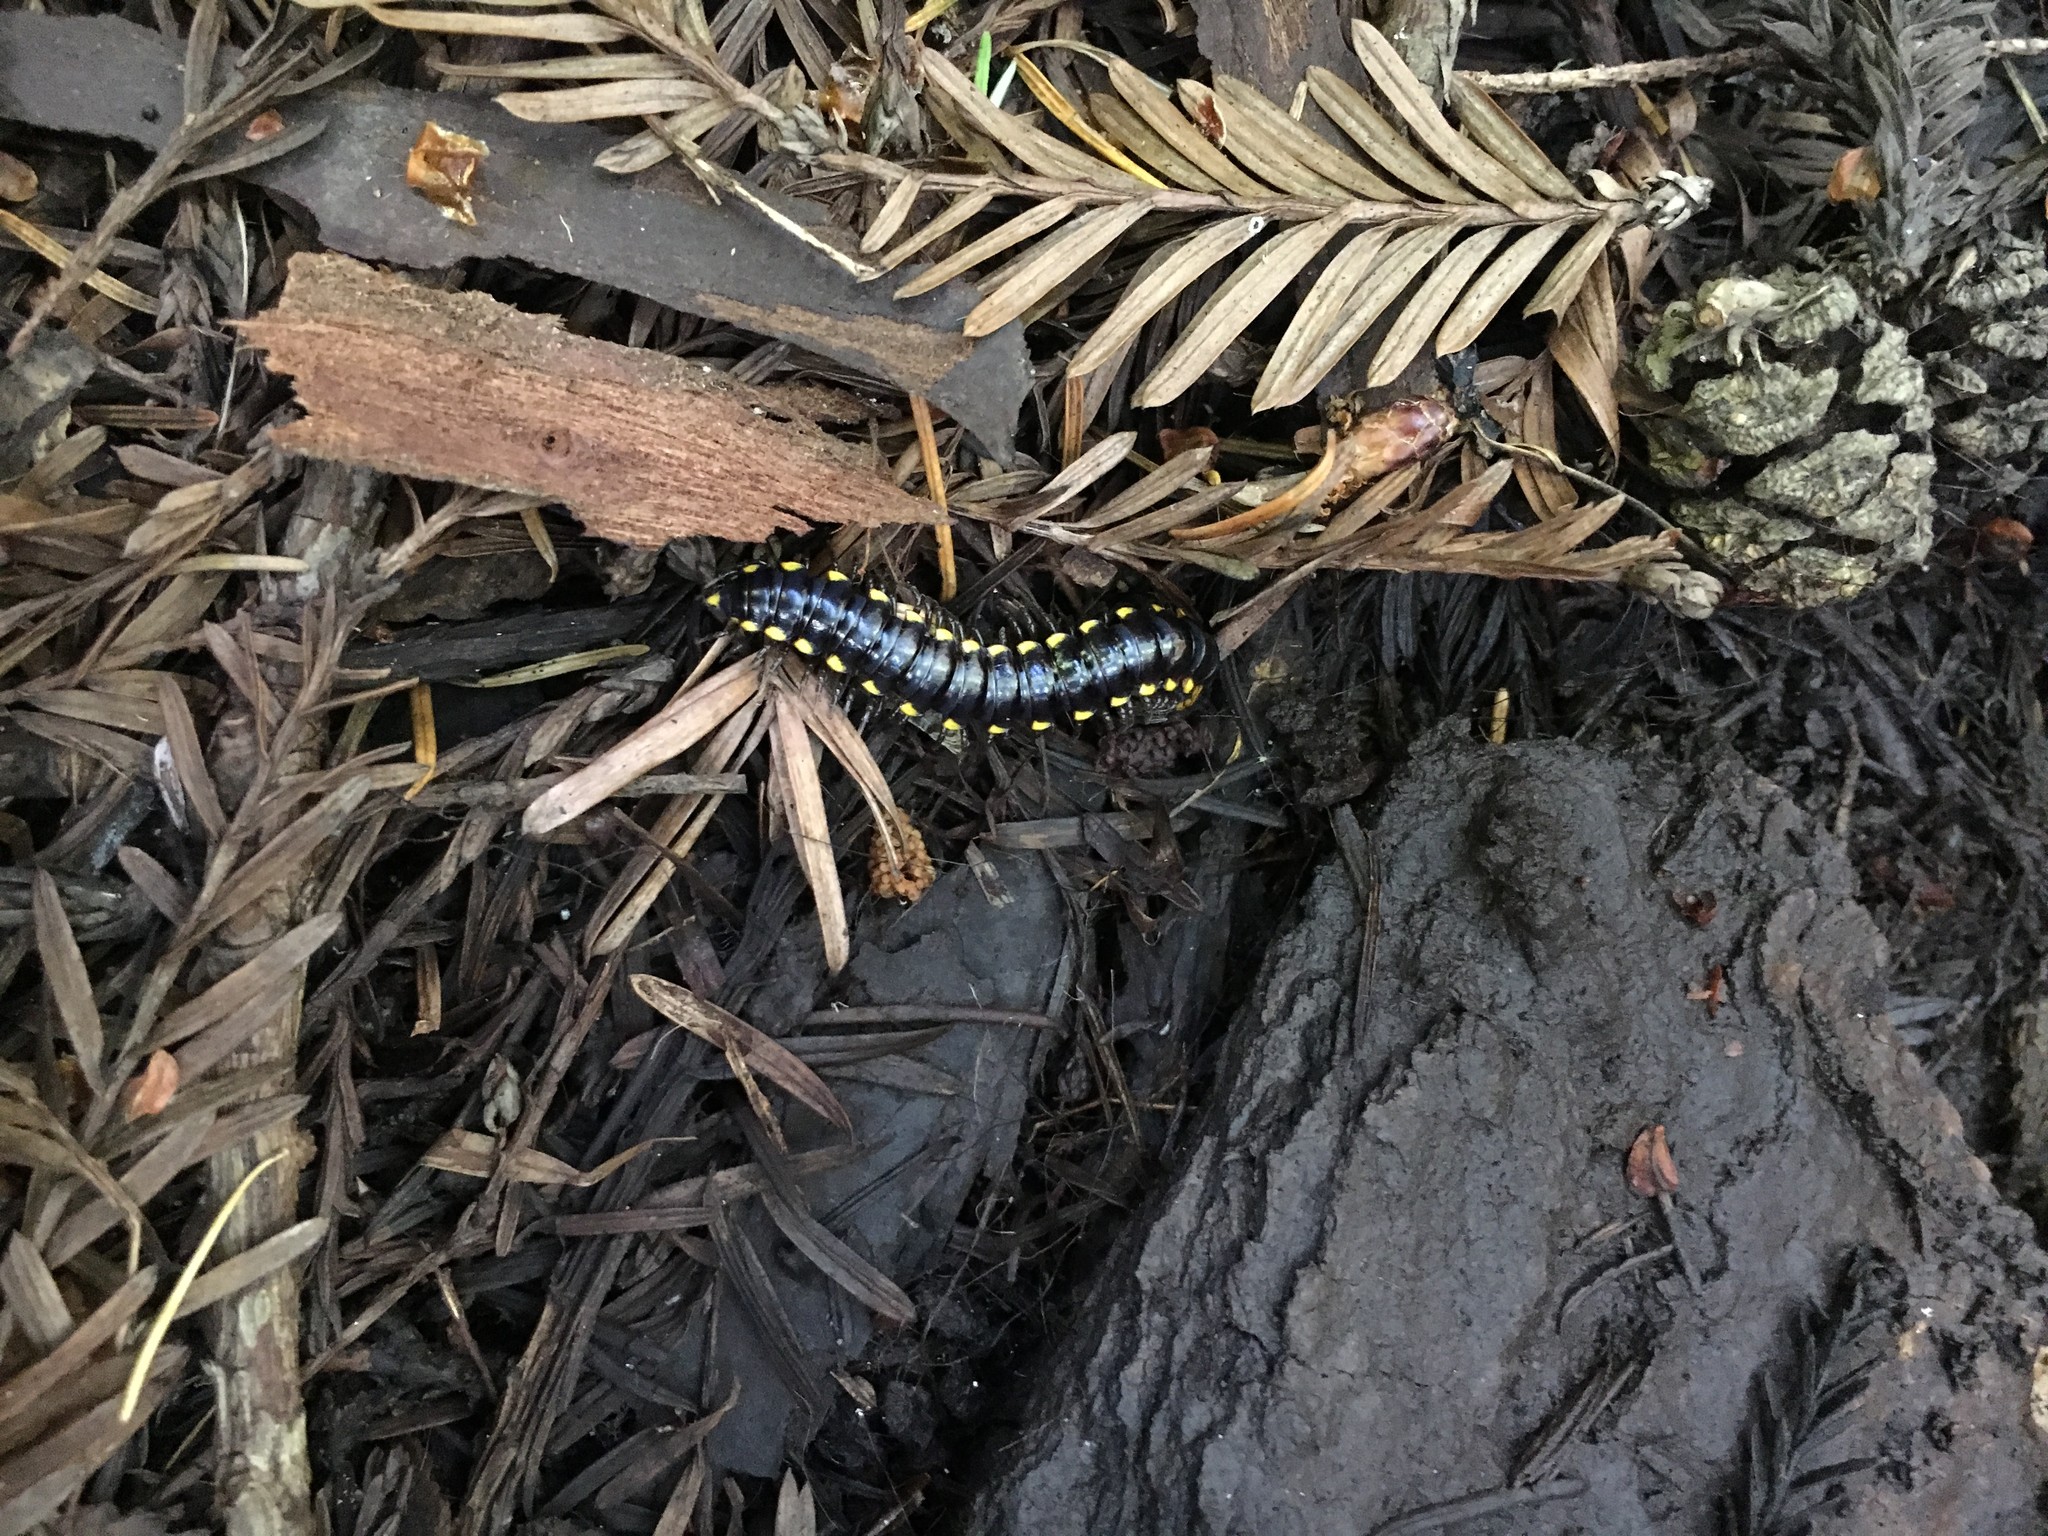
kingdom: Animalia
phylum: Arthropoda
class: Diplopoda
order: Polydesmida
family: Xystodesmidae
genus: Harpaphe
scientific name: Harpaphe haydeniana
